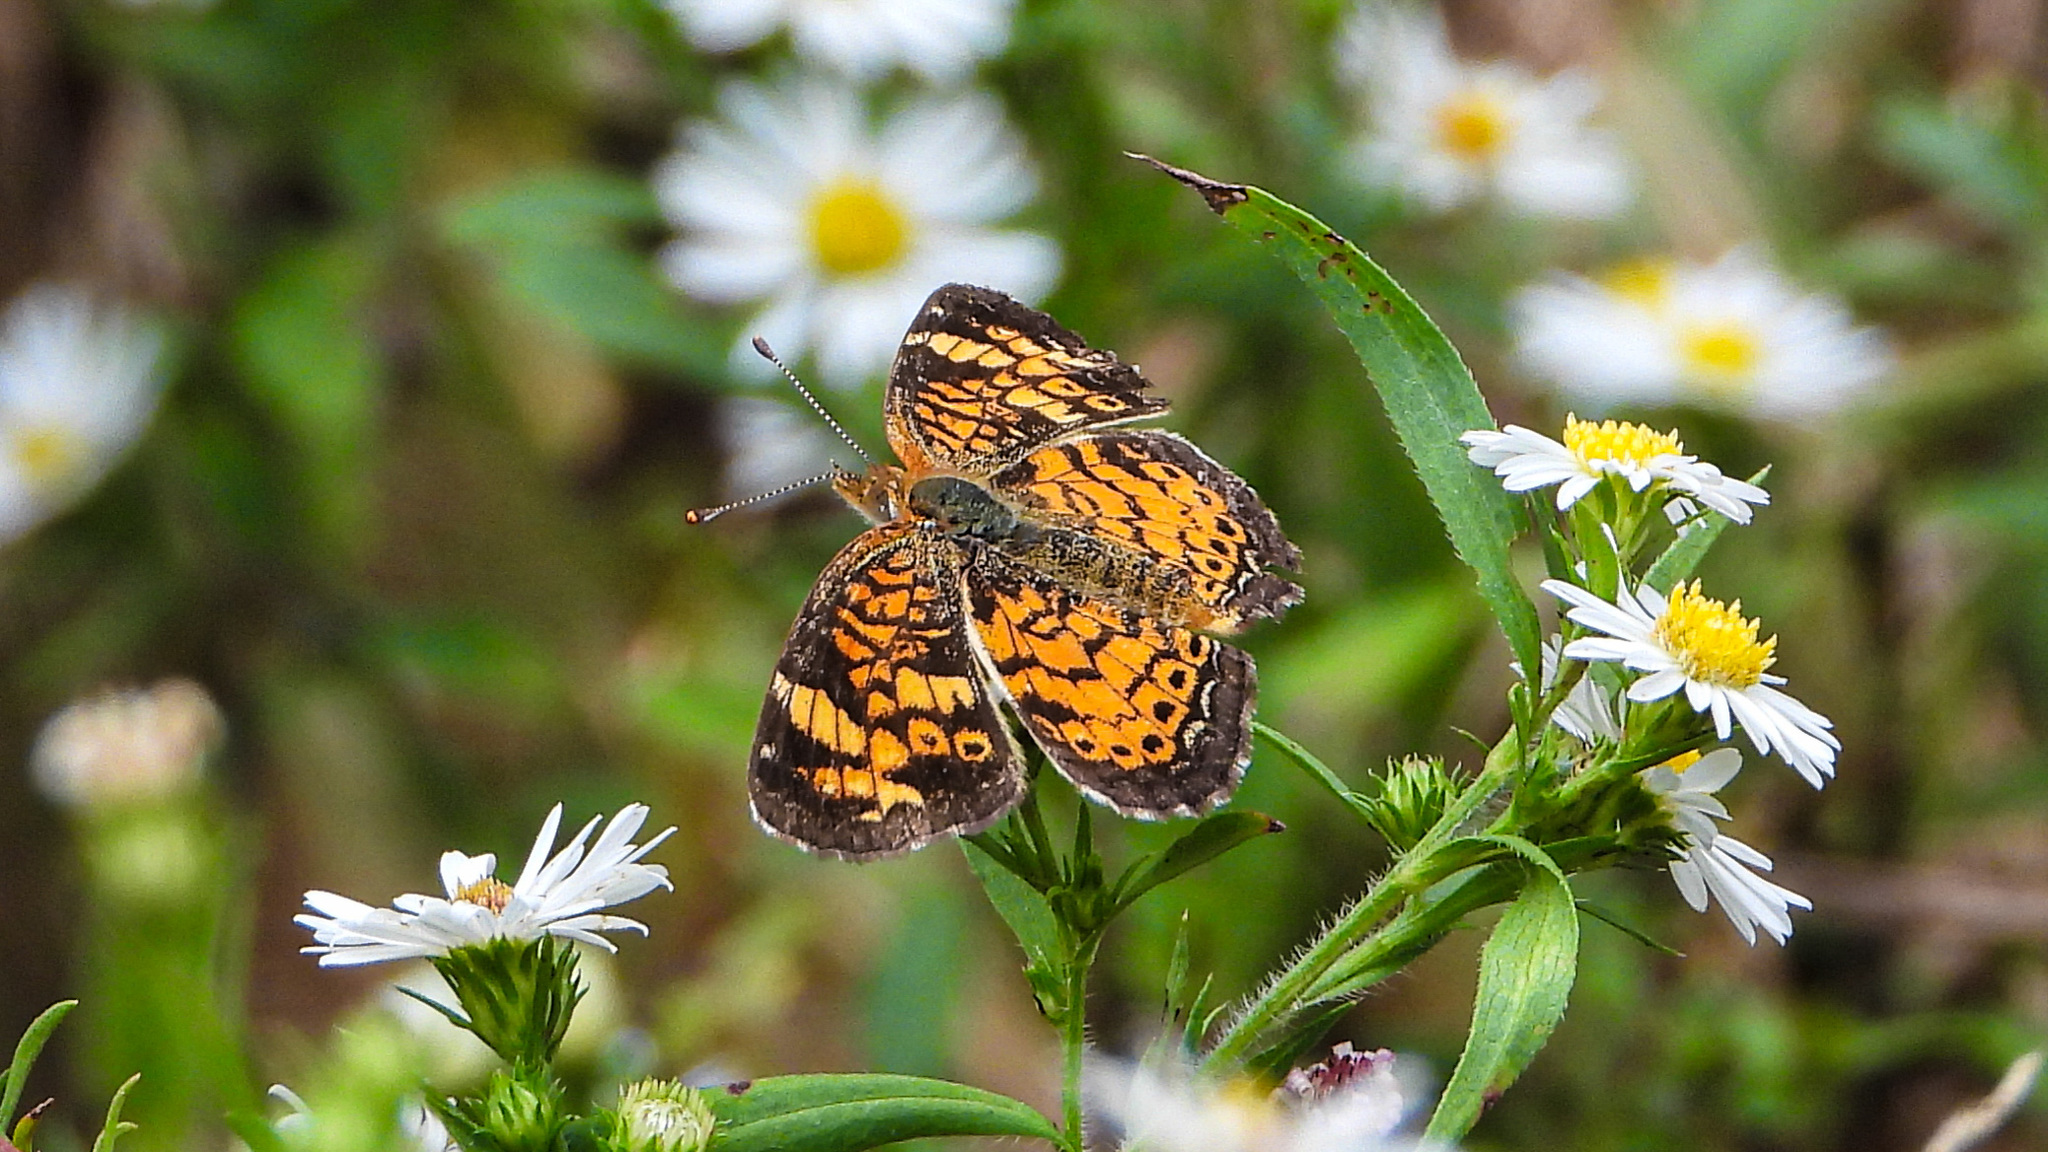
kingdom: Animalia
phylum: Arthropoda
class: Insecta
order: Lepidoptera
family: Nymphalidae
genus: Phyciodes
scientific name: Phyciodes tharos
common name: Pearl crescent
